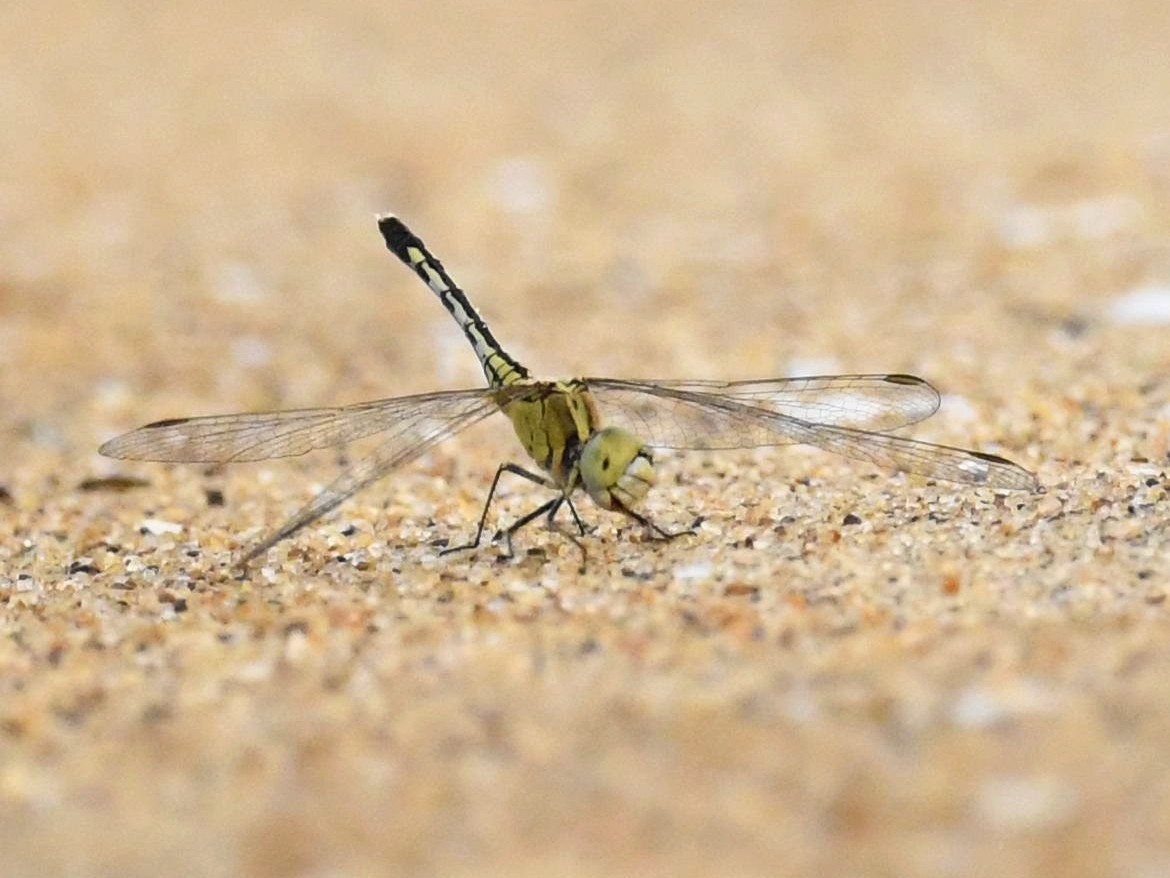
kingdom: Animalia
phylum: Arthropoda
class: Insecta
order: Odonata
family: Libellulidae
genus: Diplacodes
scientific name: Diplacodes trivialis
